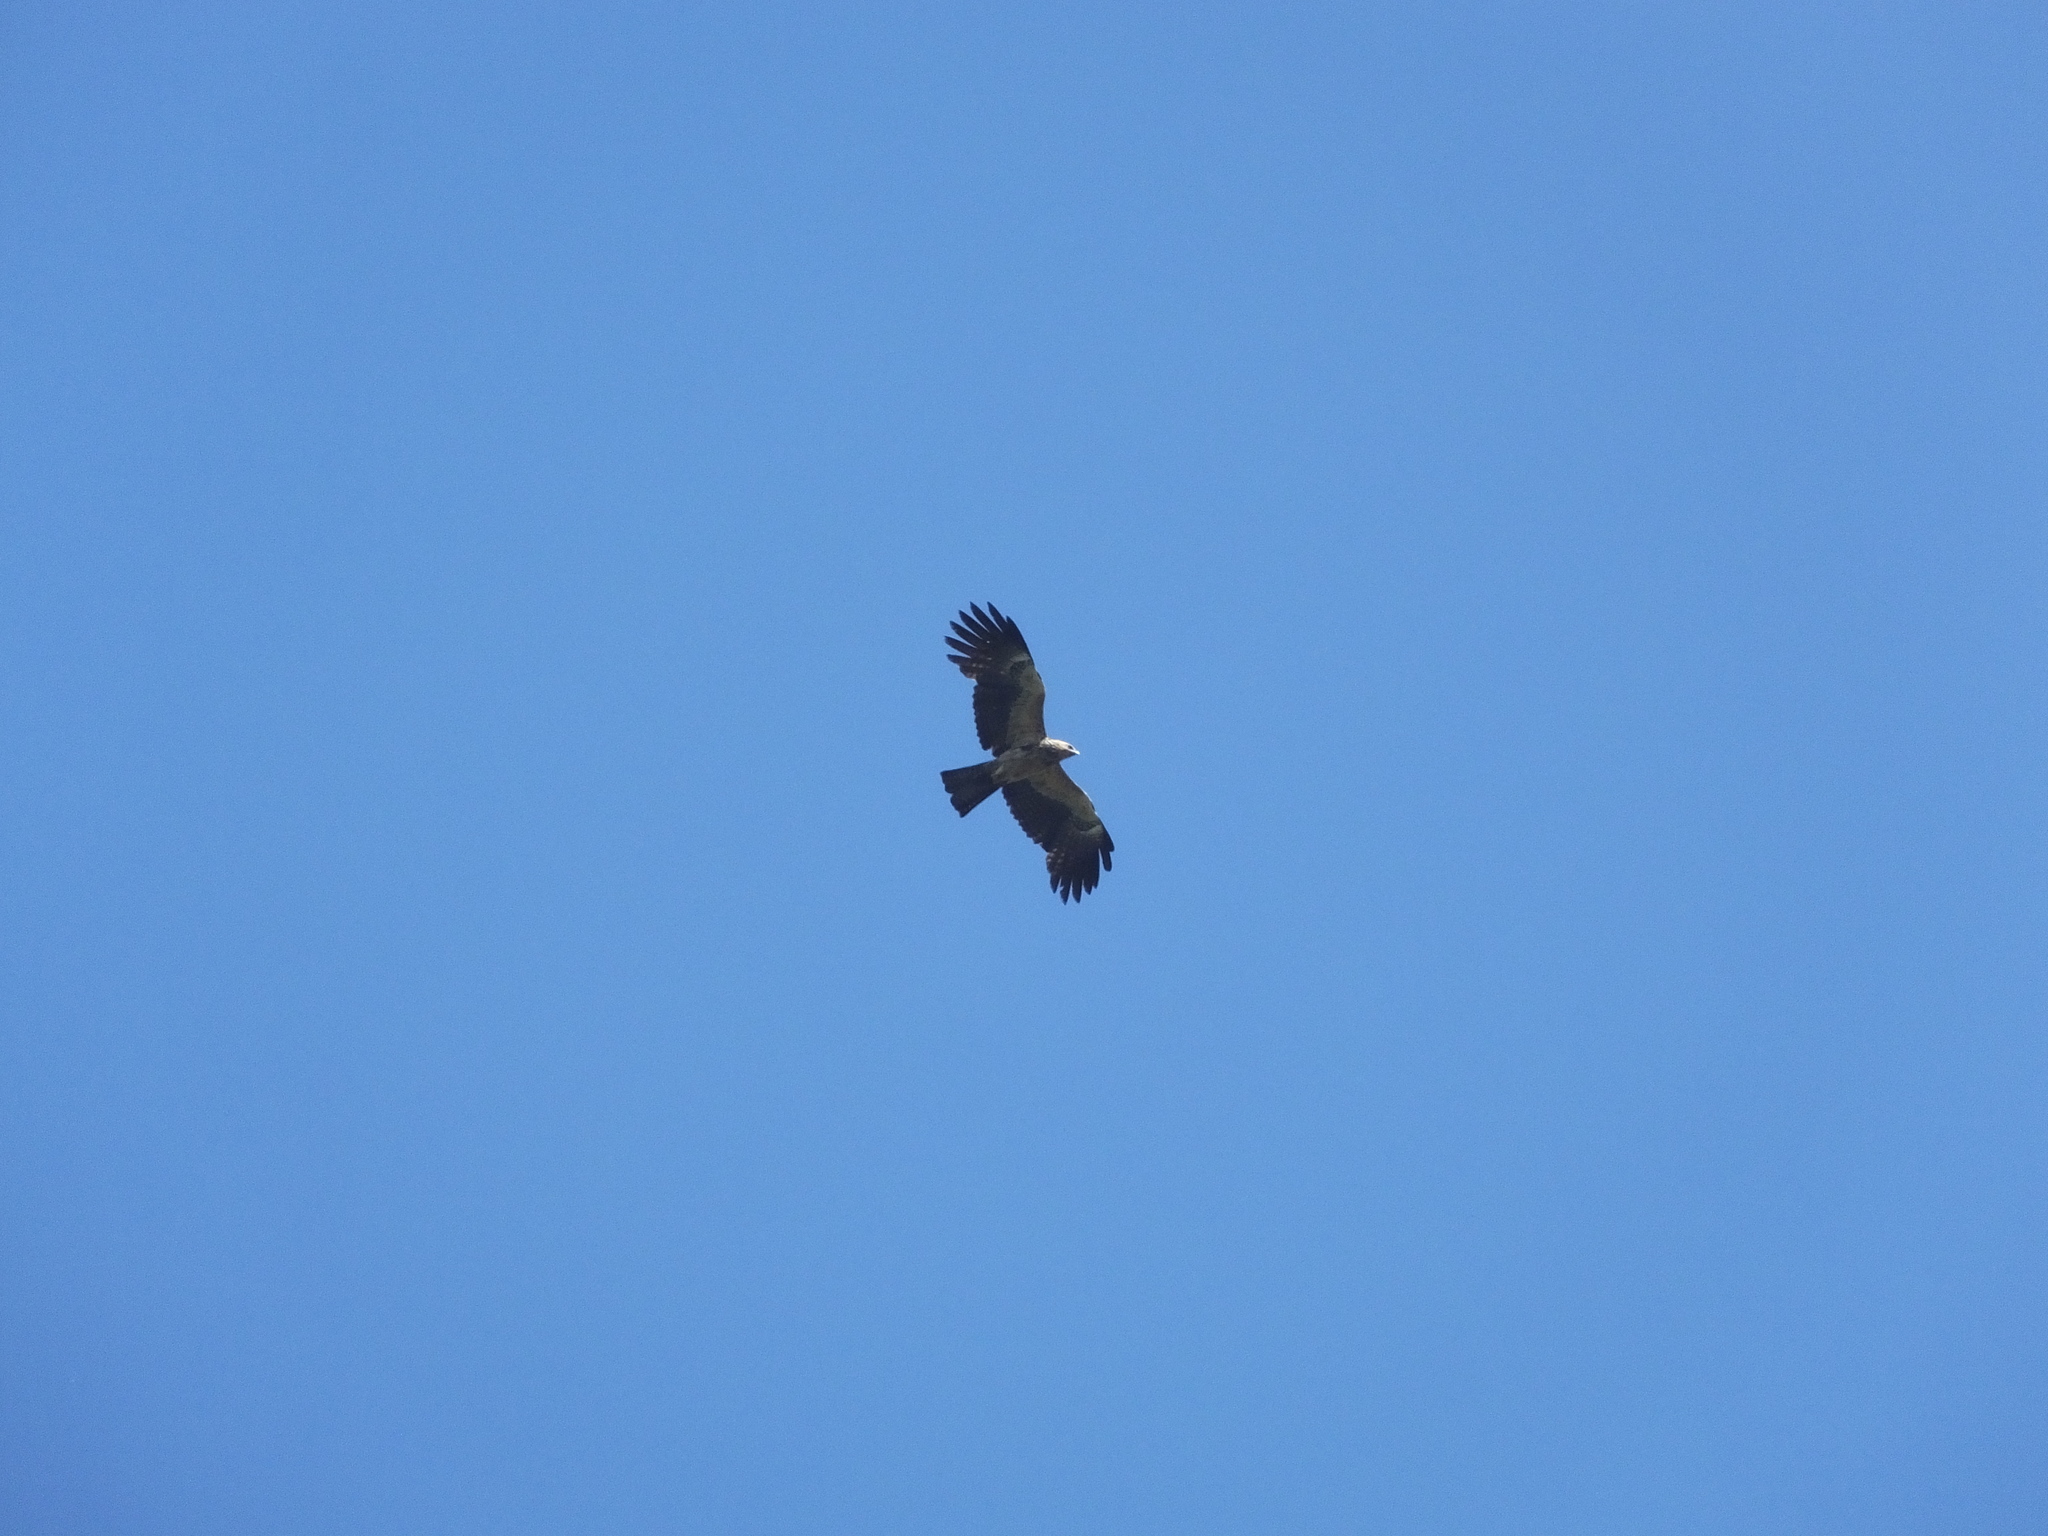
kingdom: Animalia
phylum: Chordata
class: Aves
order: Accipitriformes
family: Accipitridae
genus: Haliastur
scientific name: Haliastur indus
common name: Brahminy kite
